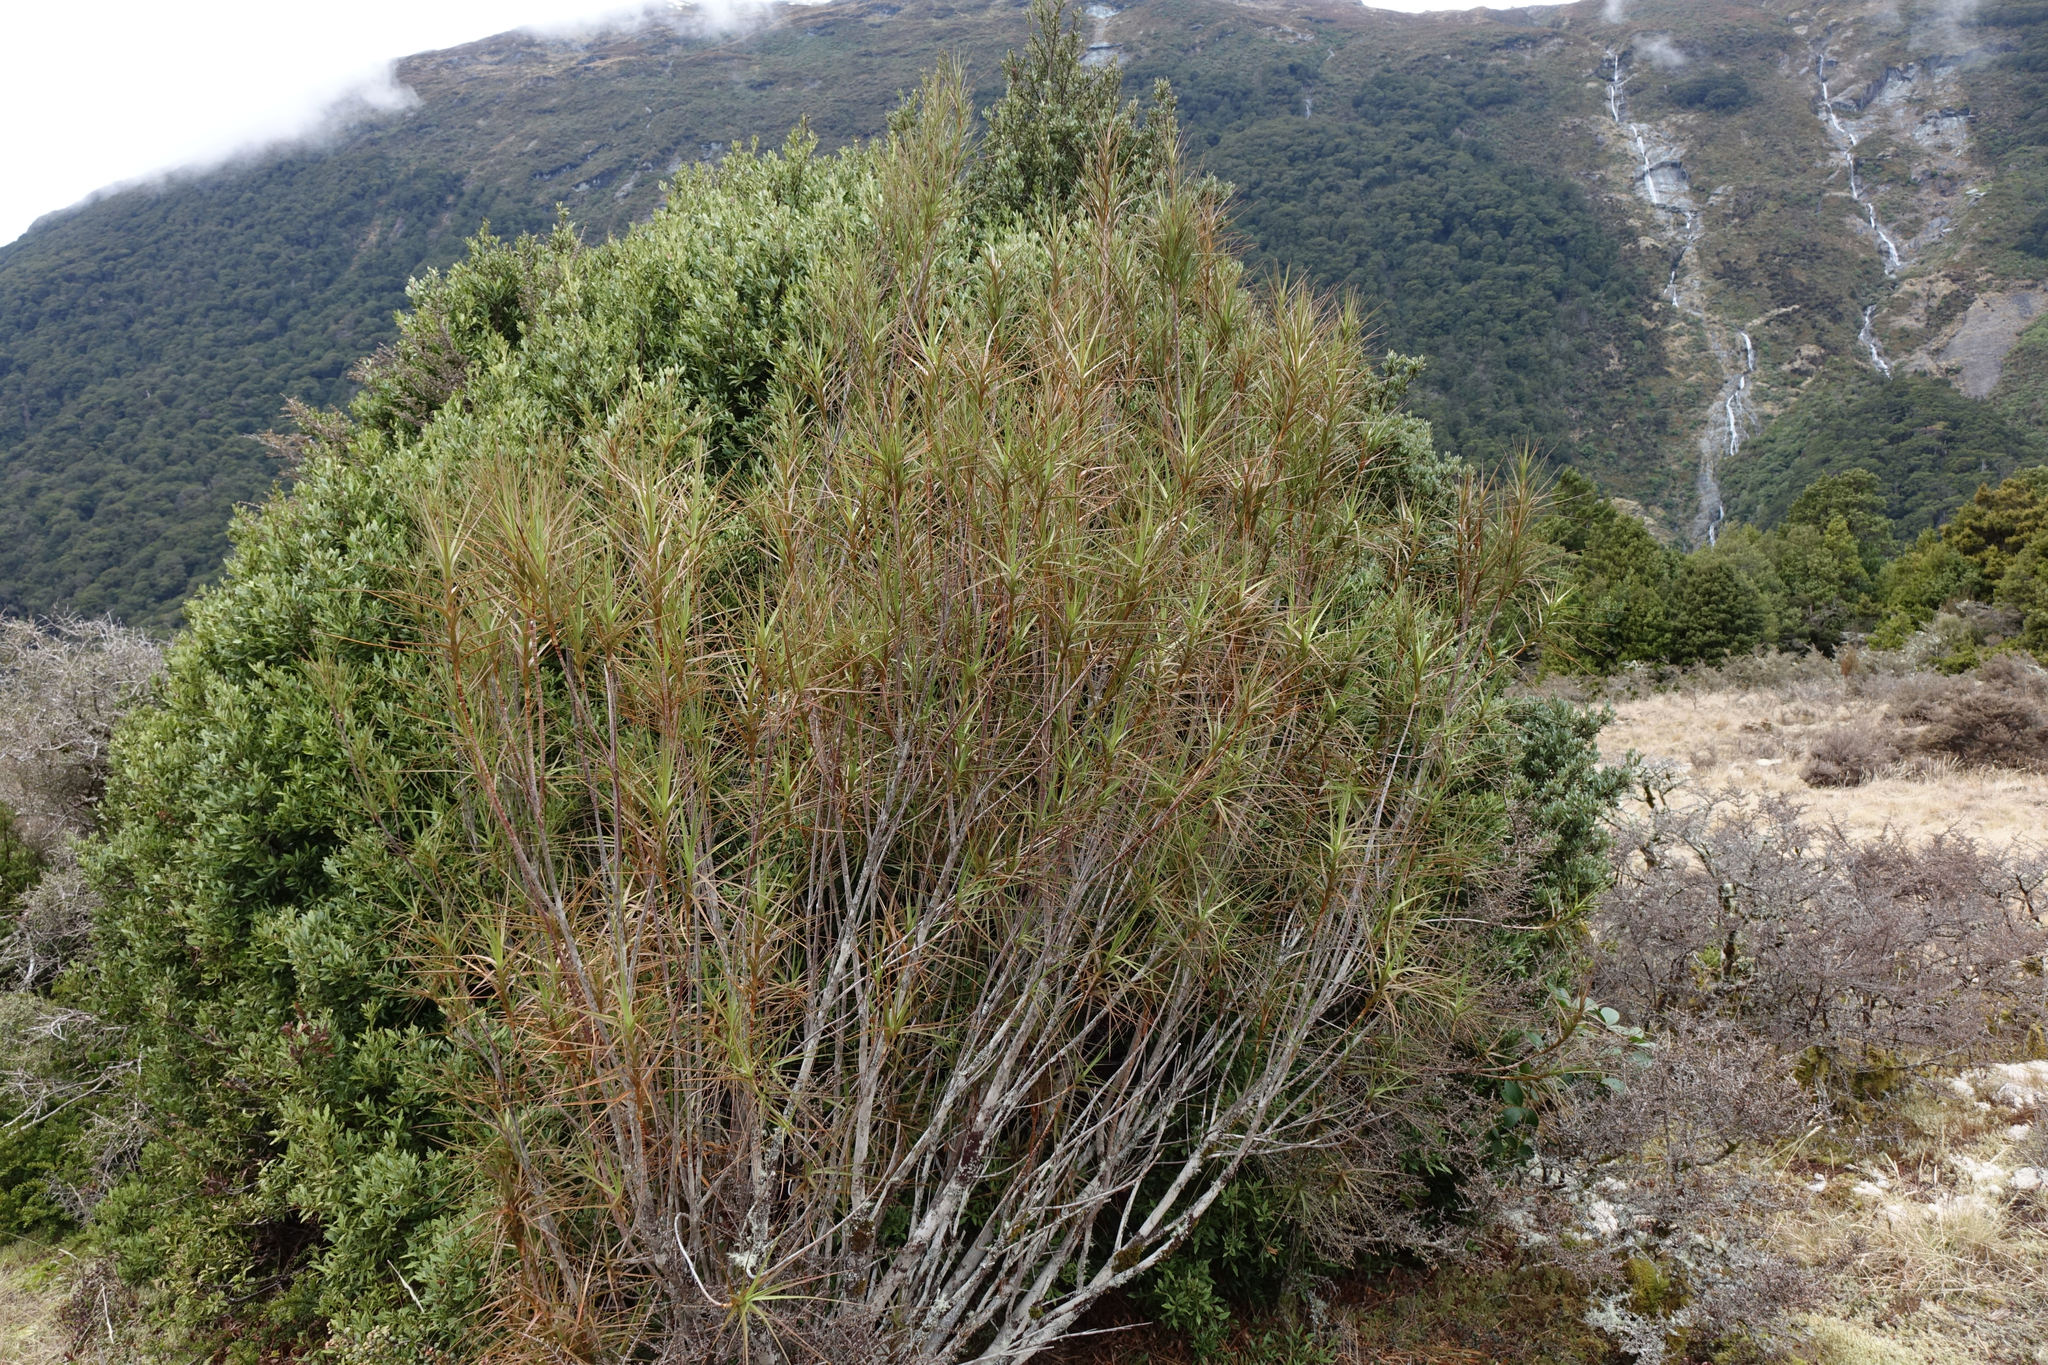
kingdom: Plantae
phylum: Tracheophyta
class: Magnoliopsida
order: Ericales
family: Ericaceae
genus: Dracophyllum
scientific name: Dracophyllum longifolium
